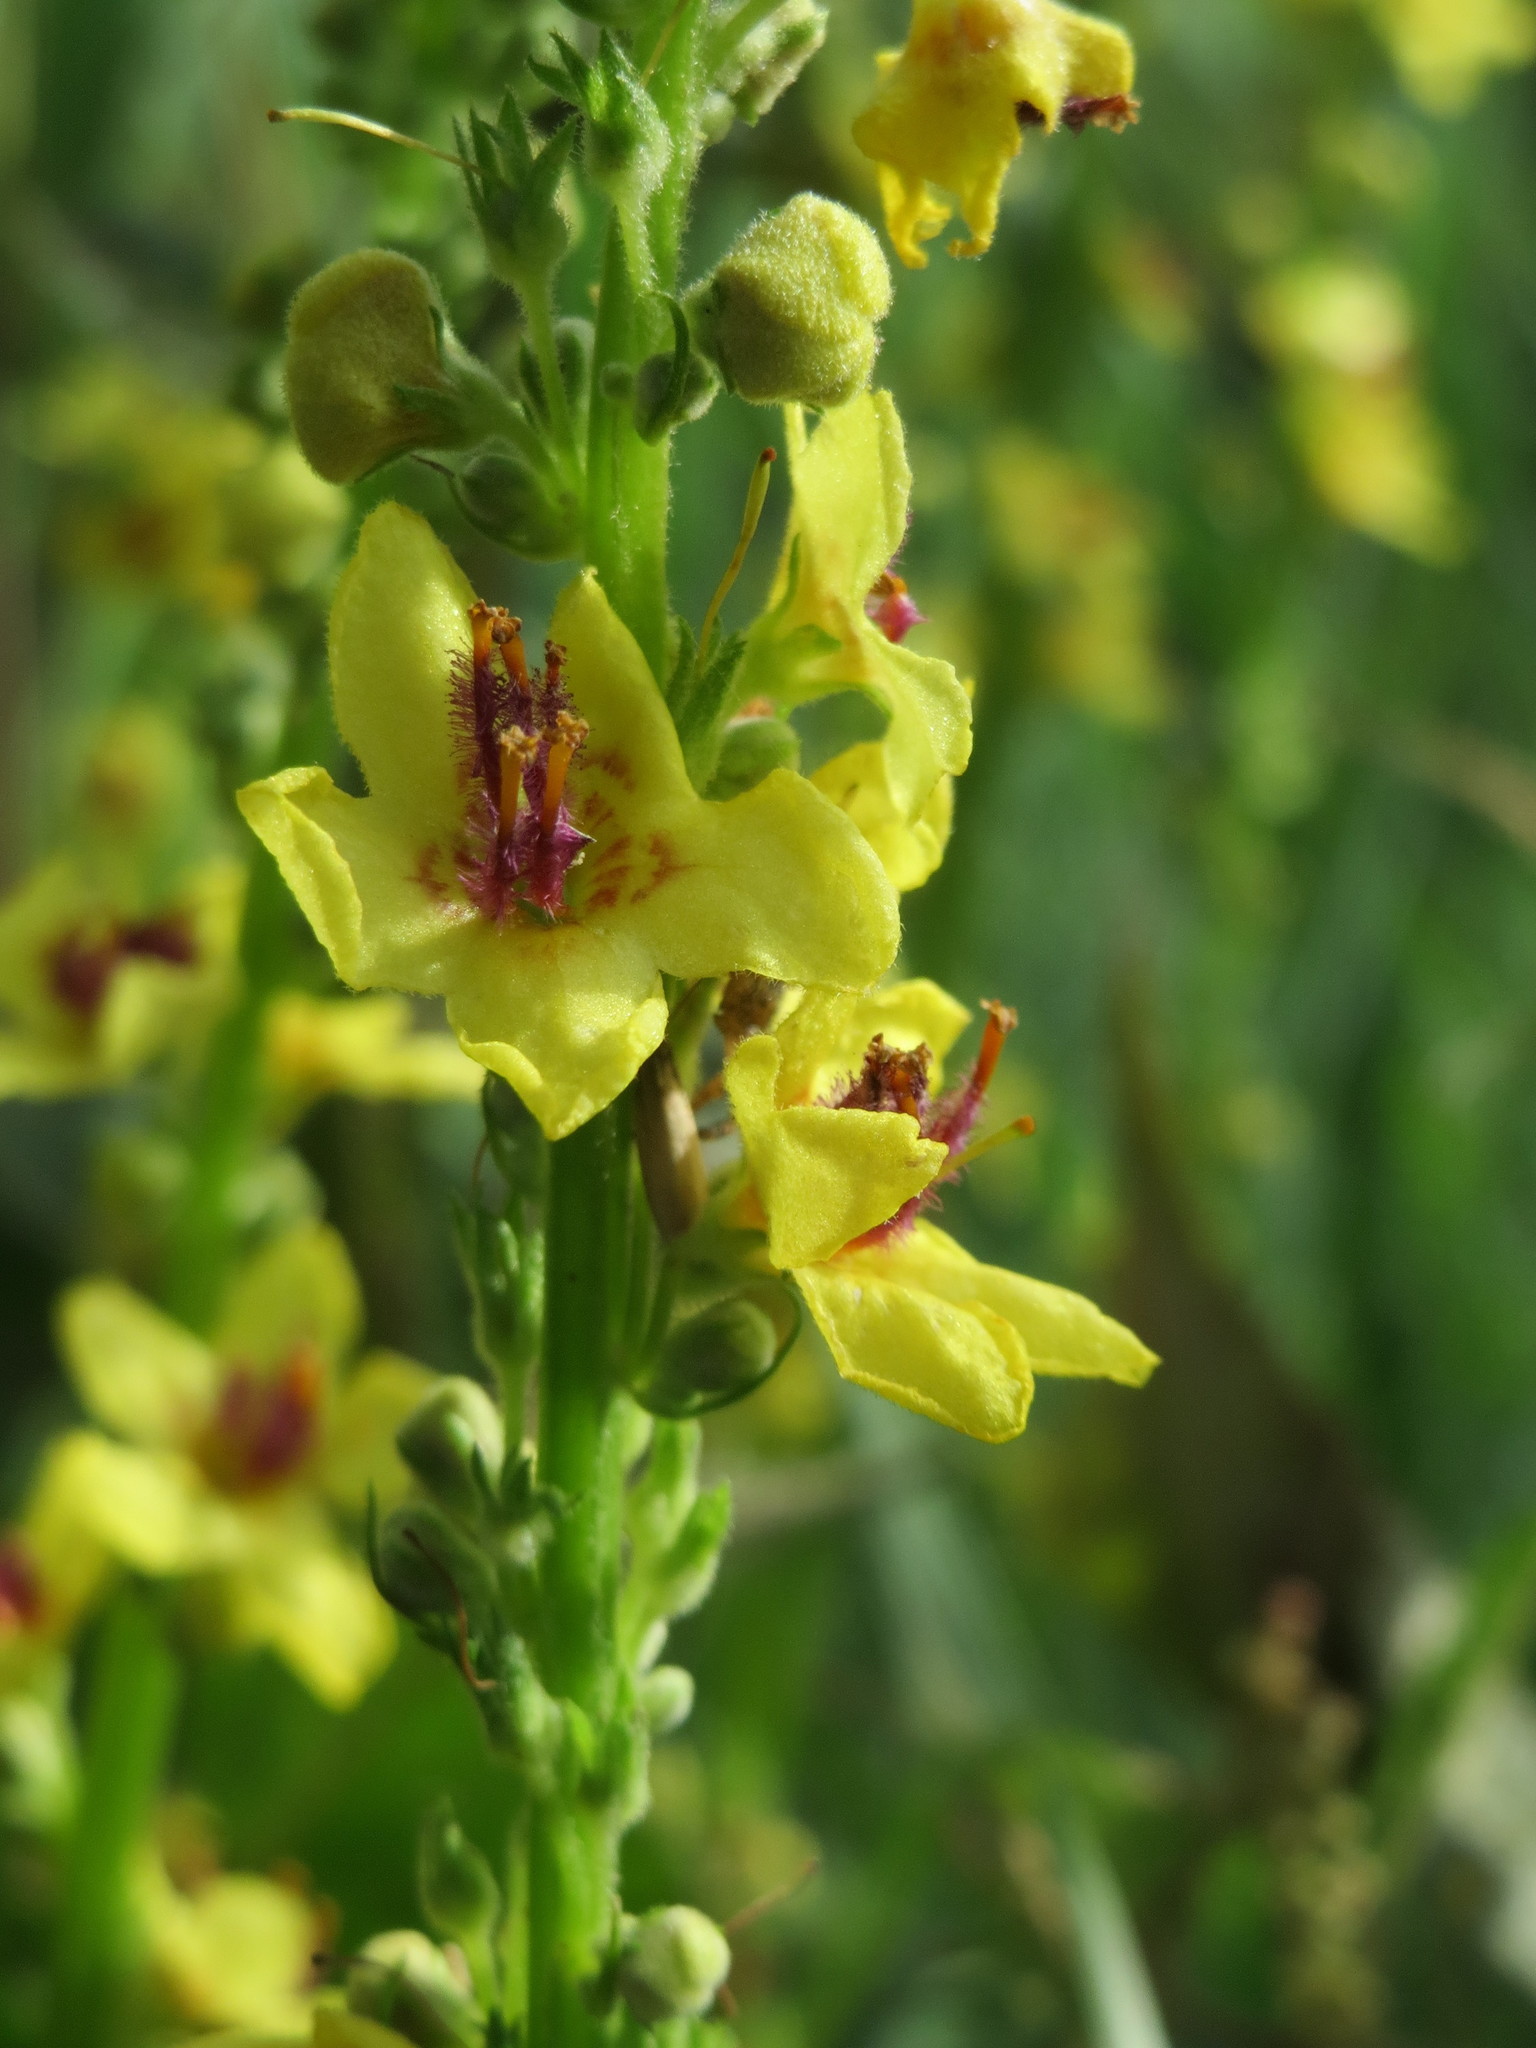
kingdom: Plantae
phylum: Tracheophyta
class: Magnoliopsida
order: Lamiales
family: Scrophulariaceae
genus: Verbascum
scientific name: Verbascum nigrum
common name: Dark mullein
